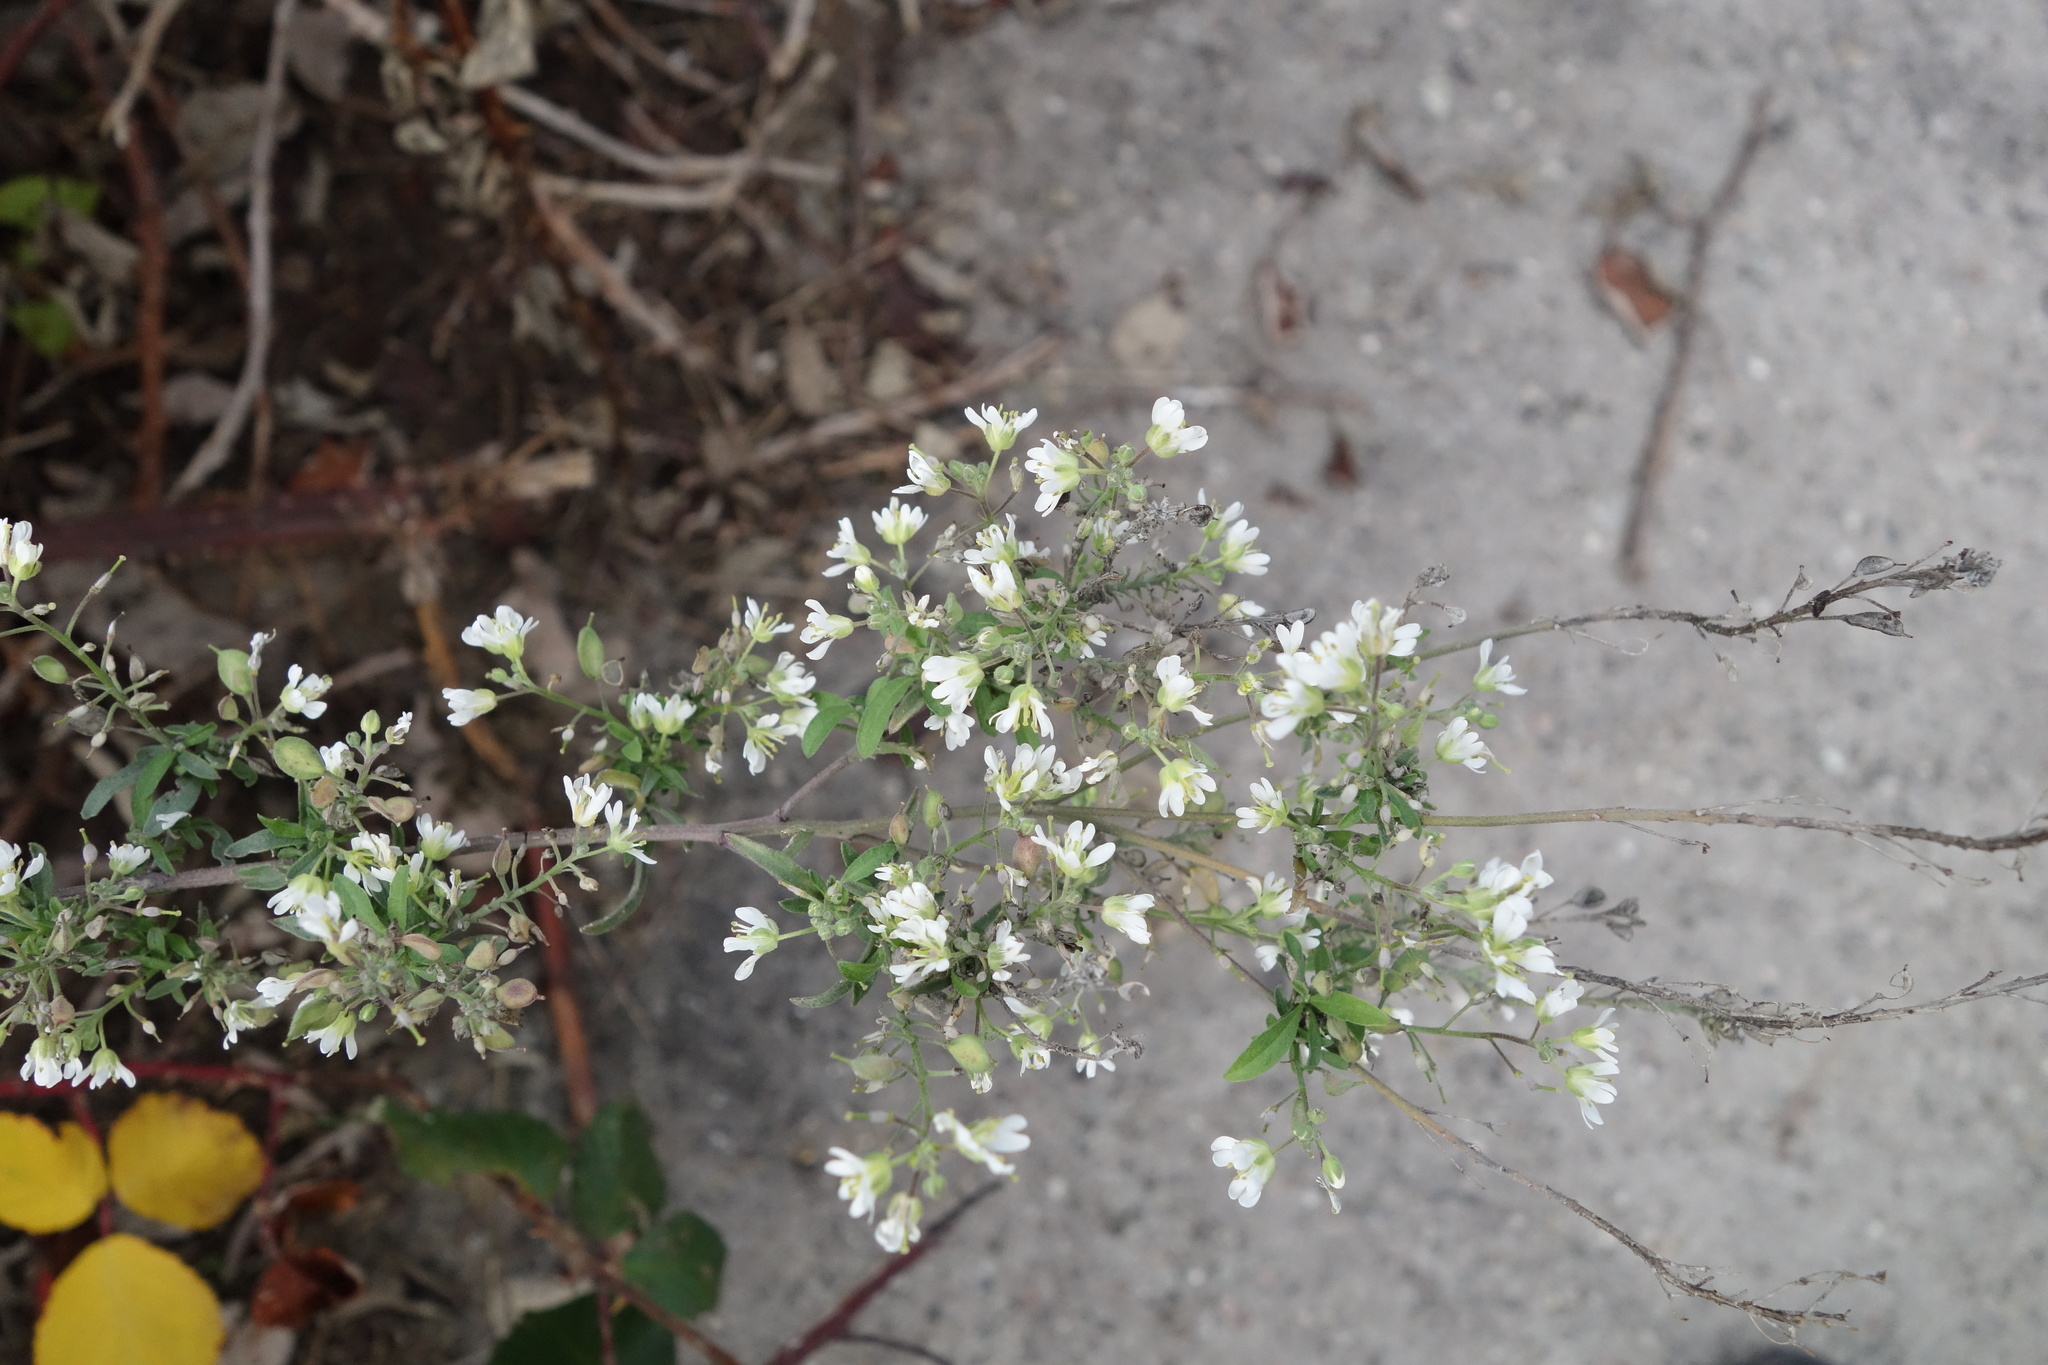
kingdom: Plantae
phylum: Tracheophyta
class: Magnoliopsida
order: Brassicales
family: Brassicaceae
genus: Berteroa
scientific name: Berteroa incana
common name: Hoary alison
